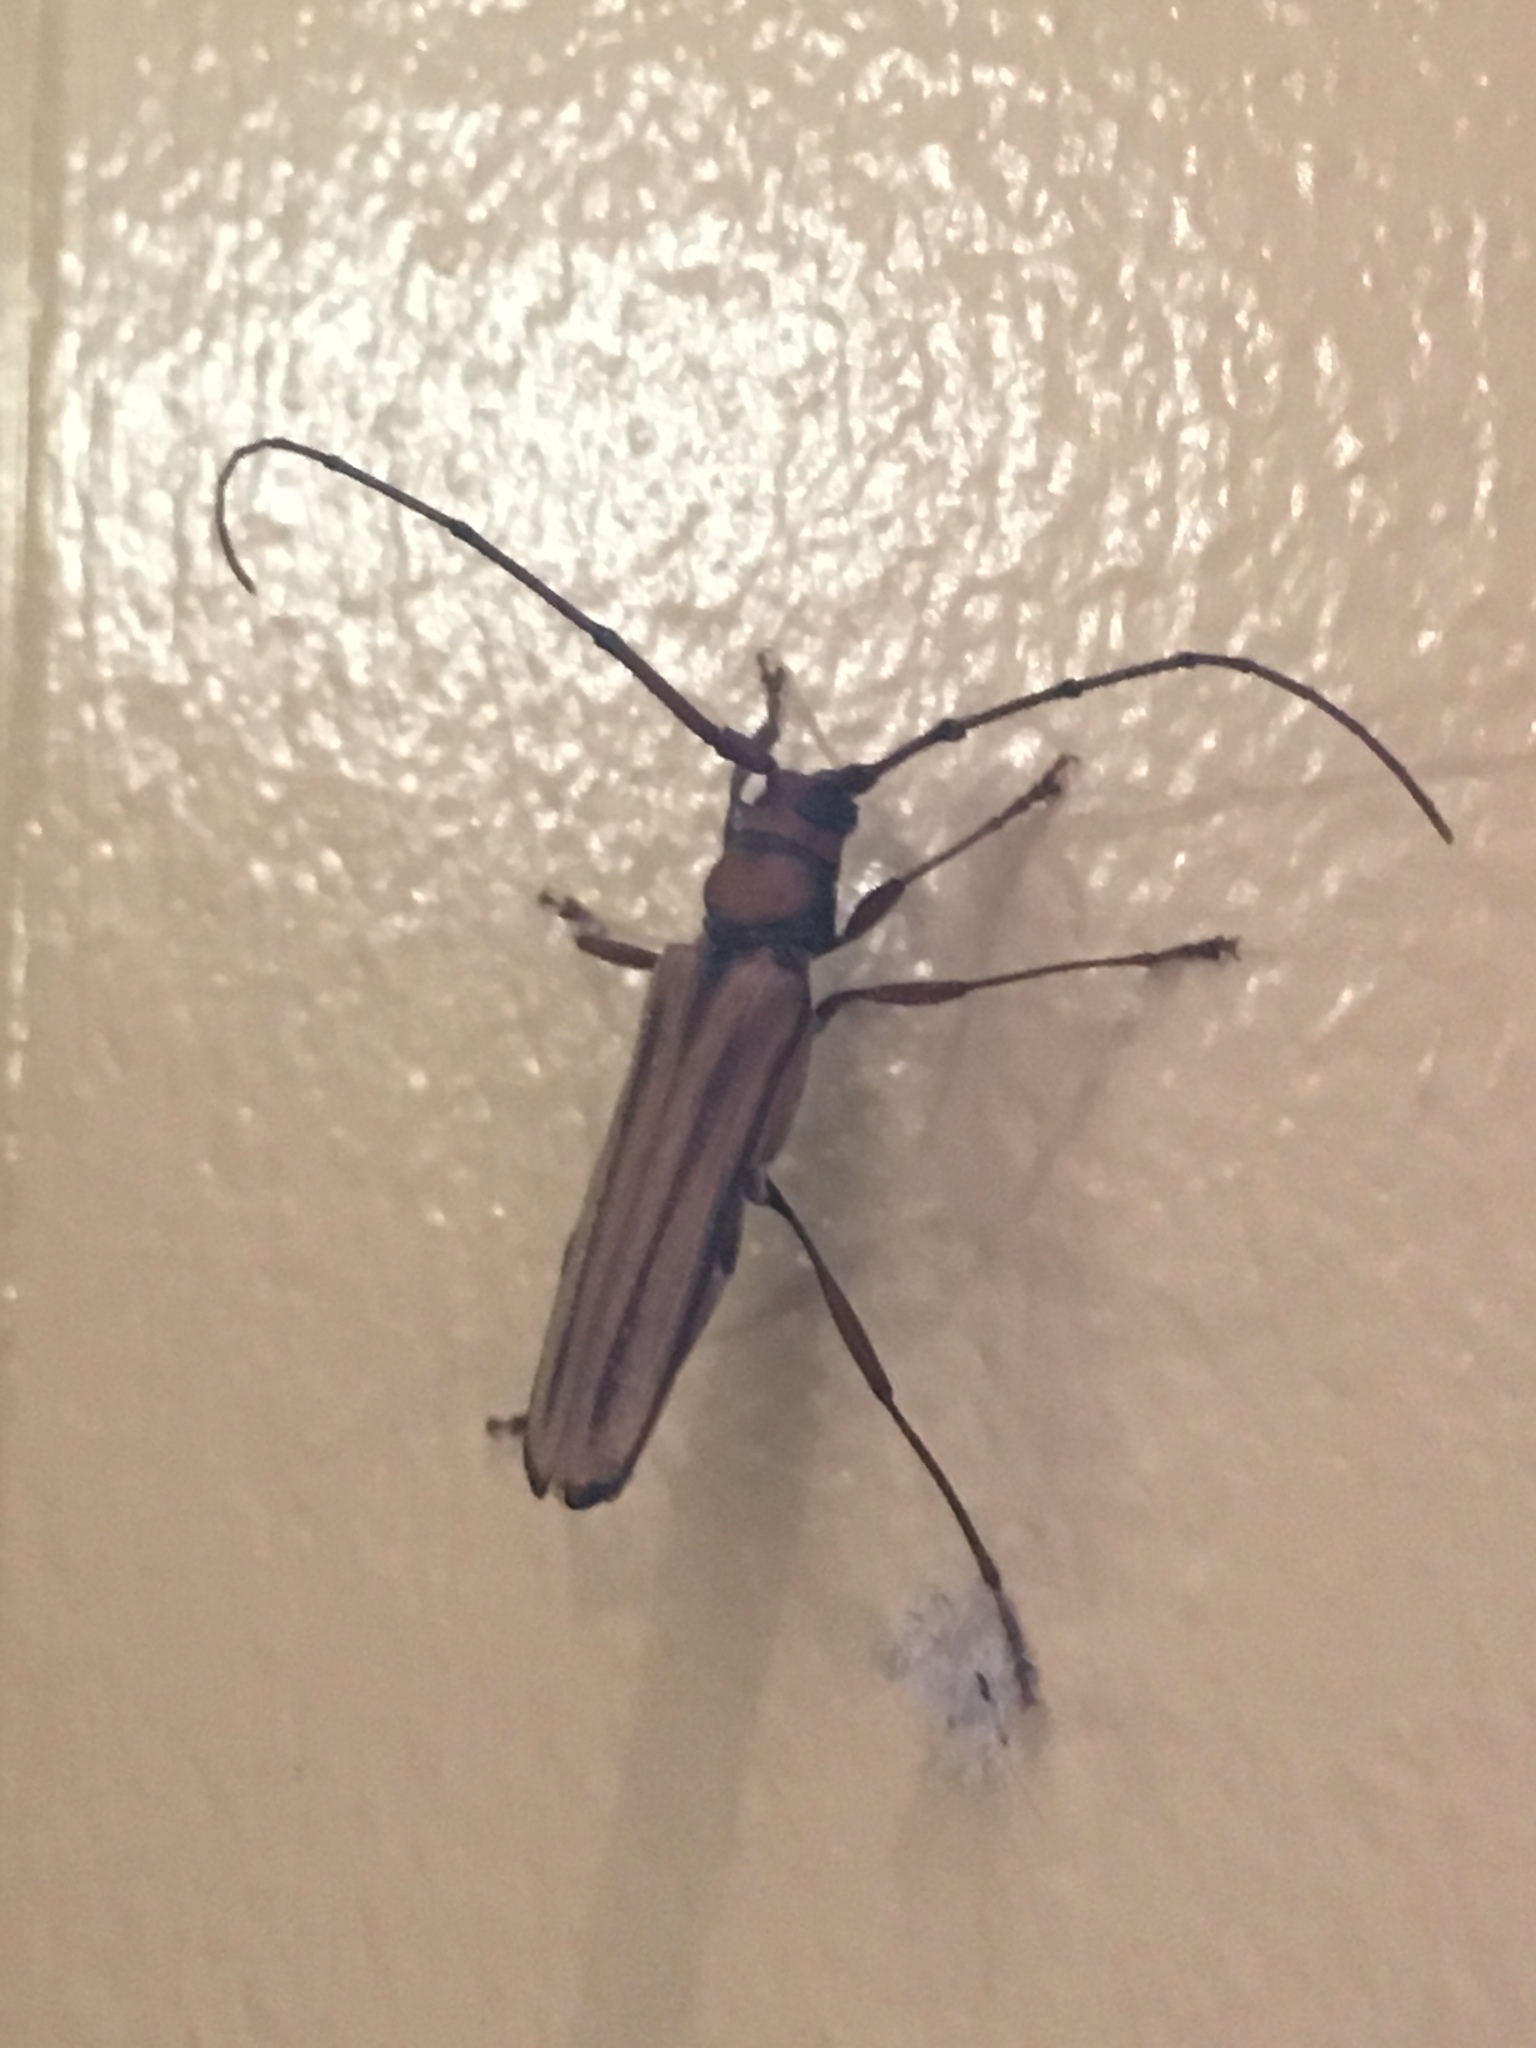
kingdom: Animalia
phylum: Arthropoda
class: Insecta
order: Coleoptera
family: Cerambycidae
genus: Xystrocera
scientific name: Xystrocera globosa
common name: Peach-tree longhorn
